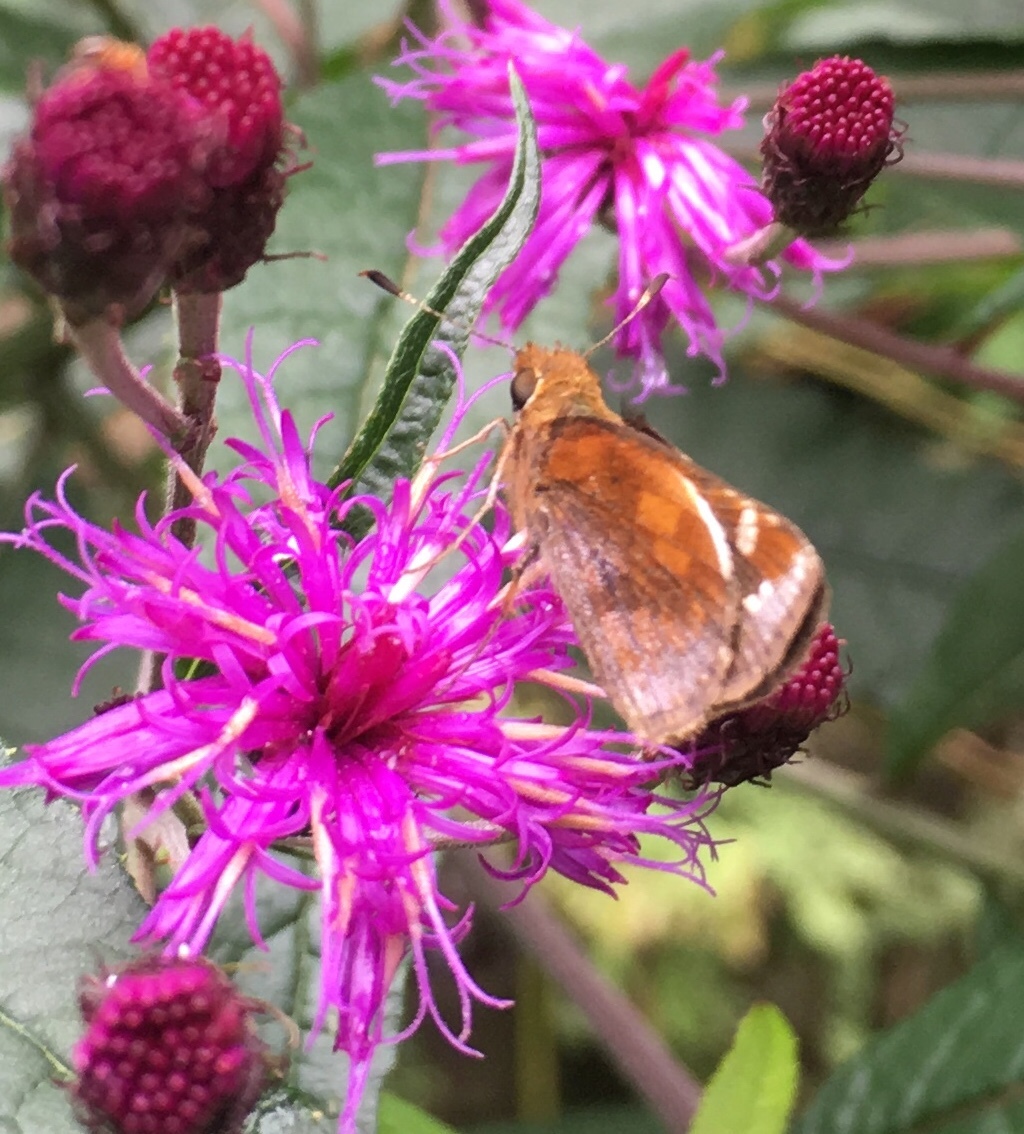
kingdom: Animalia
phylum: Arthropoda
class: Insecta
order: Lepidoptera
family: Hesperiidae
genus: Lon
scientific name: Lon zabulon
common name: Zabulon skipper
